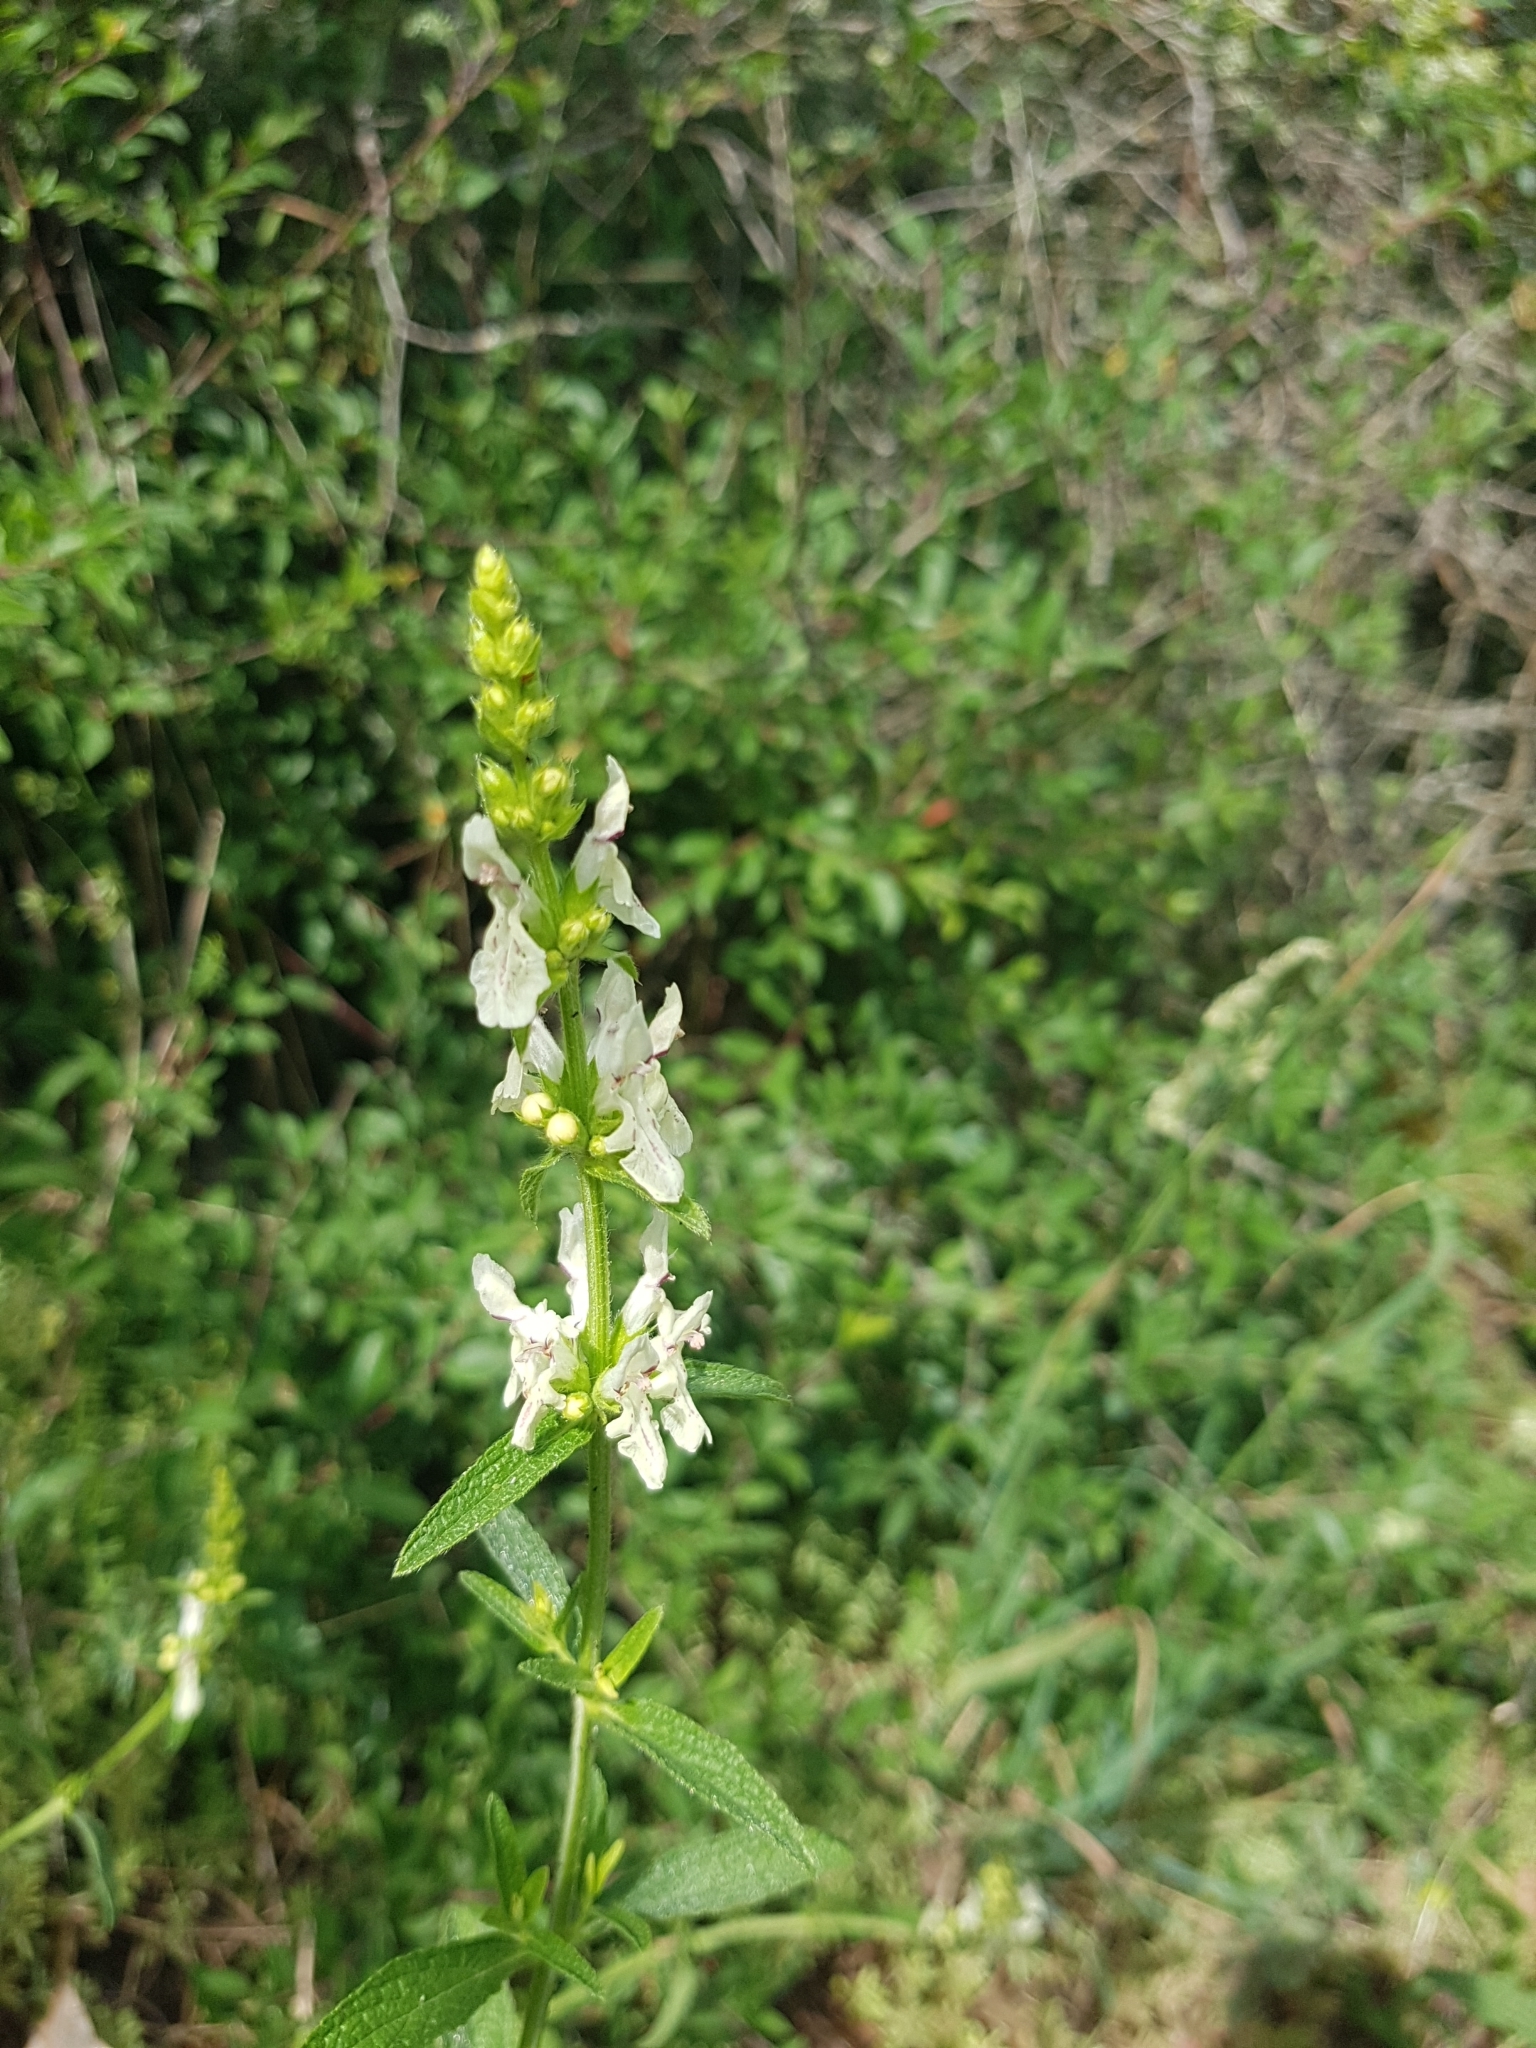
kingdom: Plantae
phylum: Tracheophyta
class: Magnoliopsida
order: Lamiales
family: Lamiaceae
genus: Stachys
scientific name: Stachys recta
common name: Perennial yellow-woundwort
